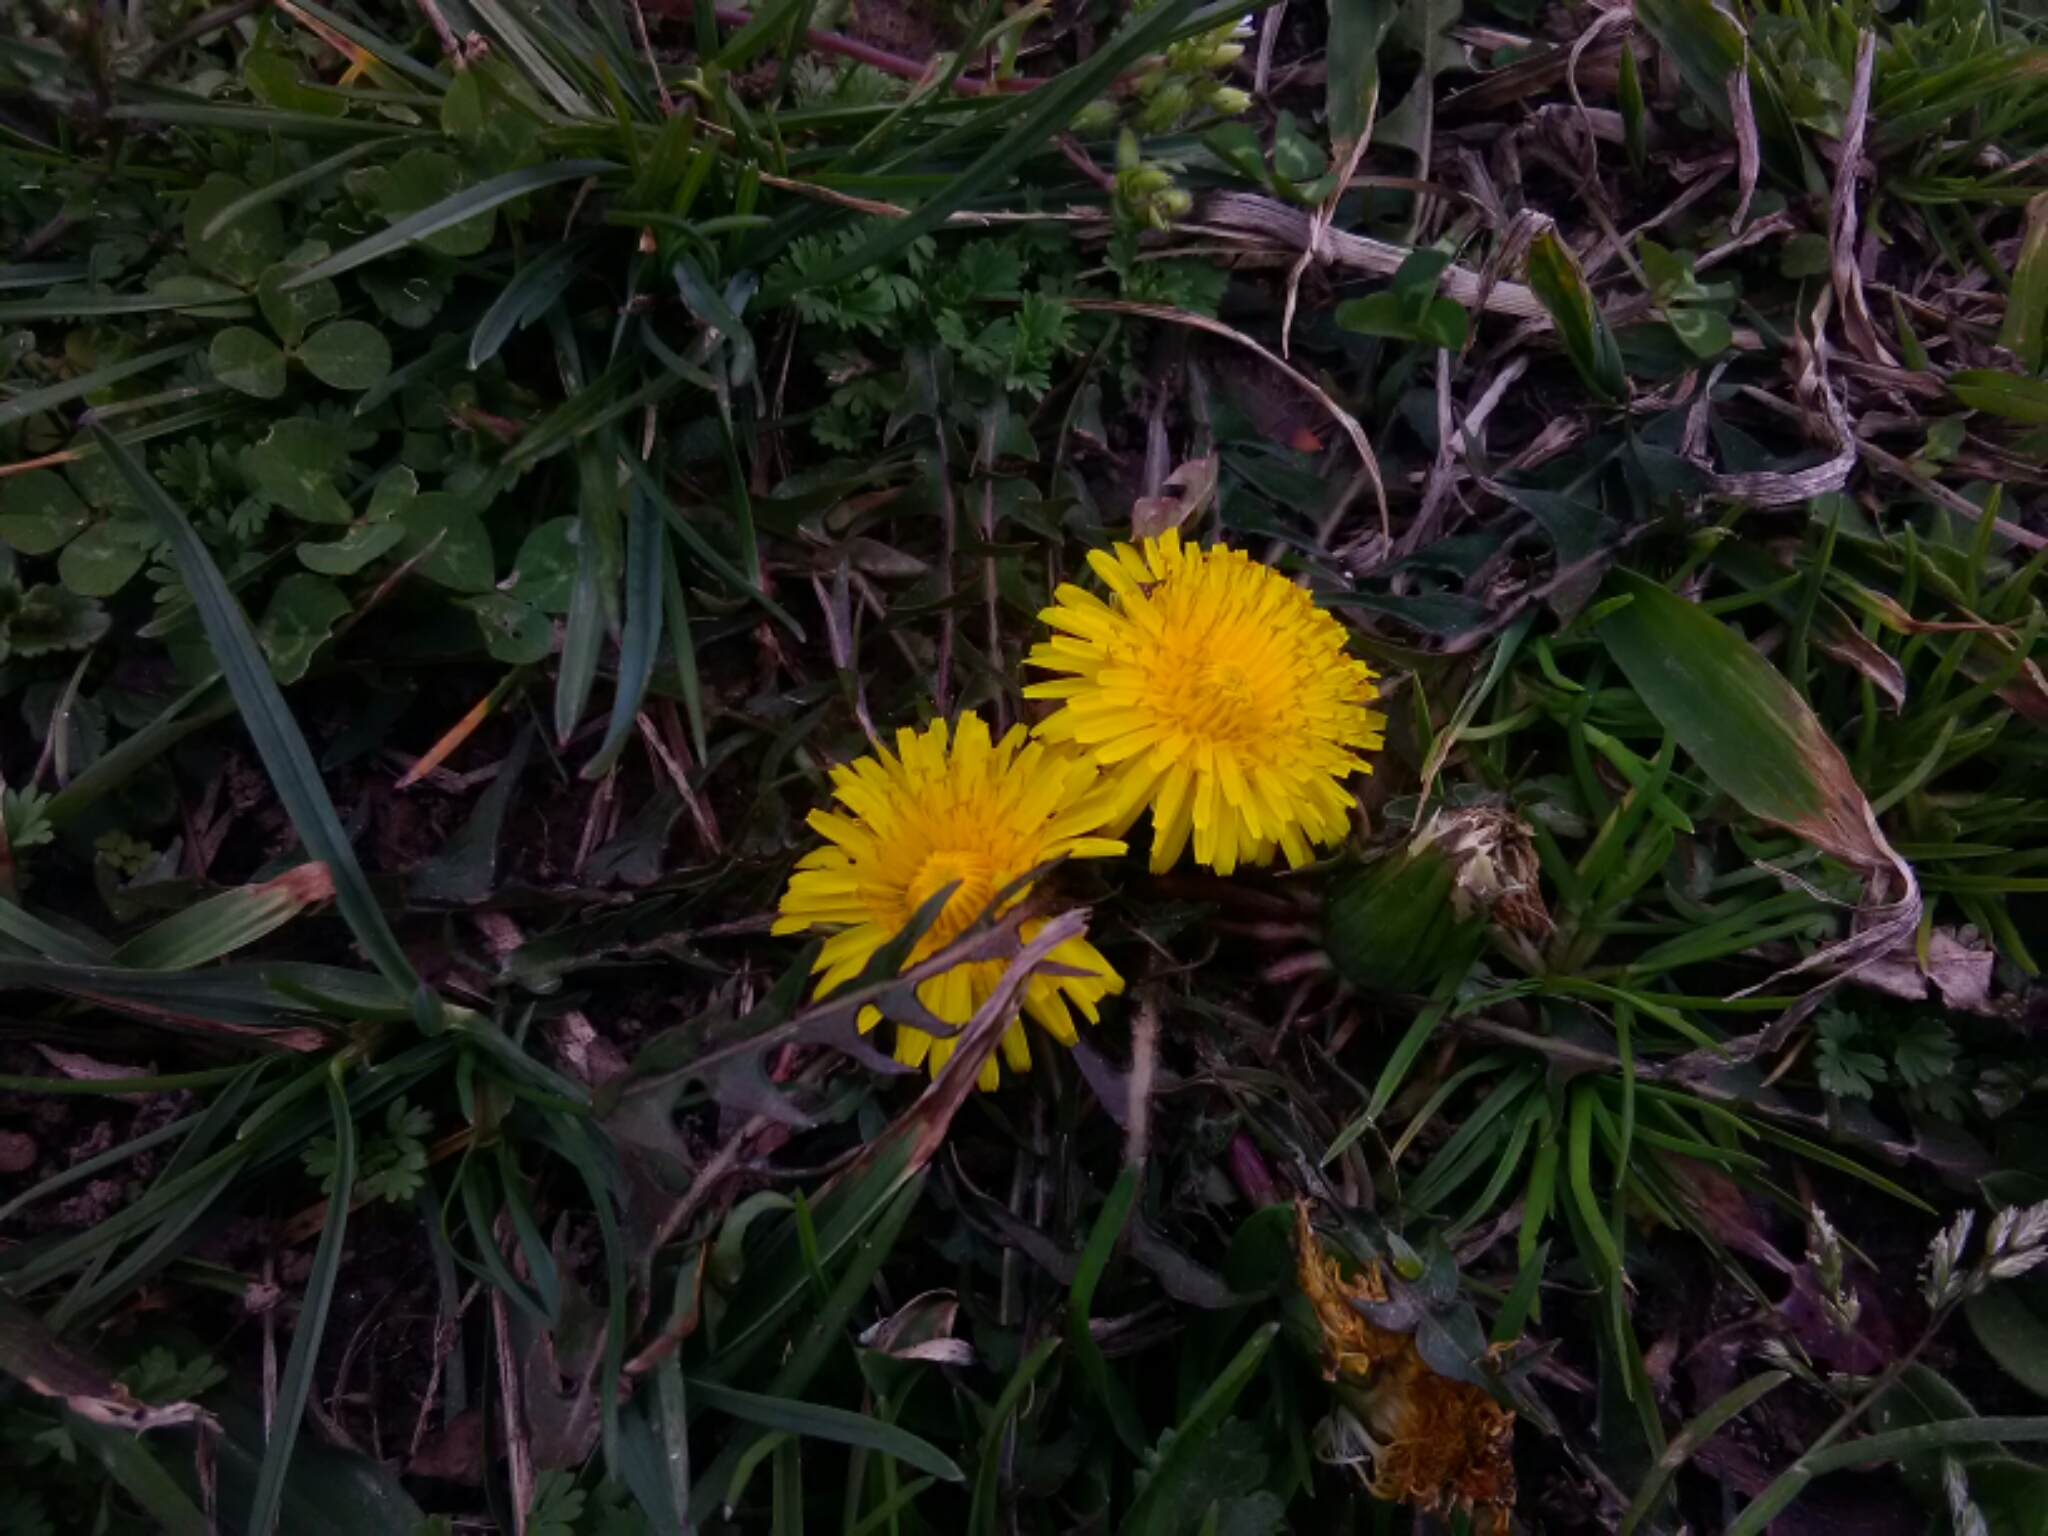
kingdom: Plantae
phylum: Tracheophyta
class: Magnoliopsida
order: Asterales
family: Asteraceae
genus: Taraxacum
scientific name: Taraxacum officinale
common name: Common dandelion
